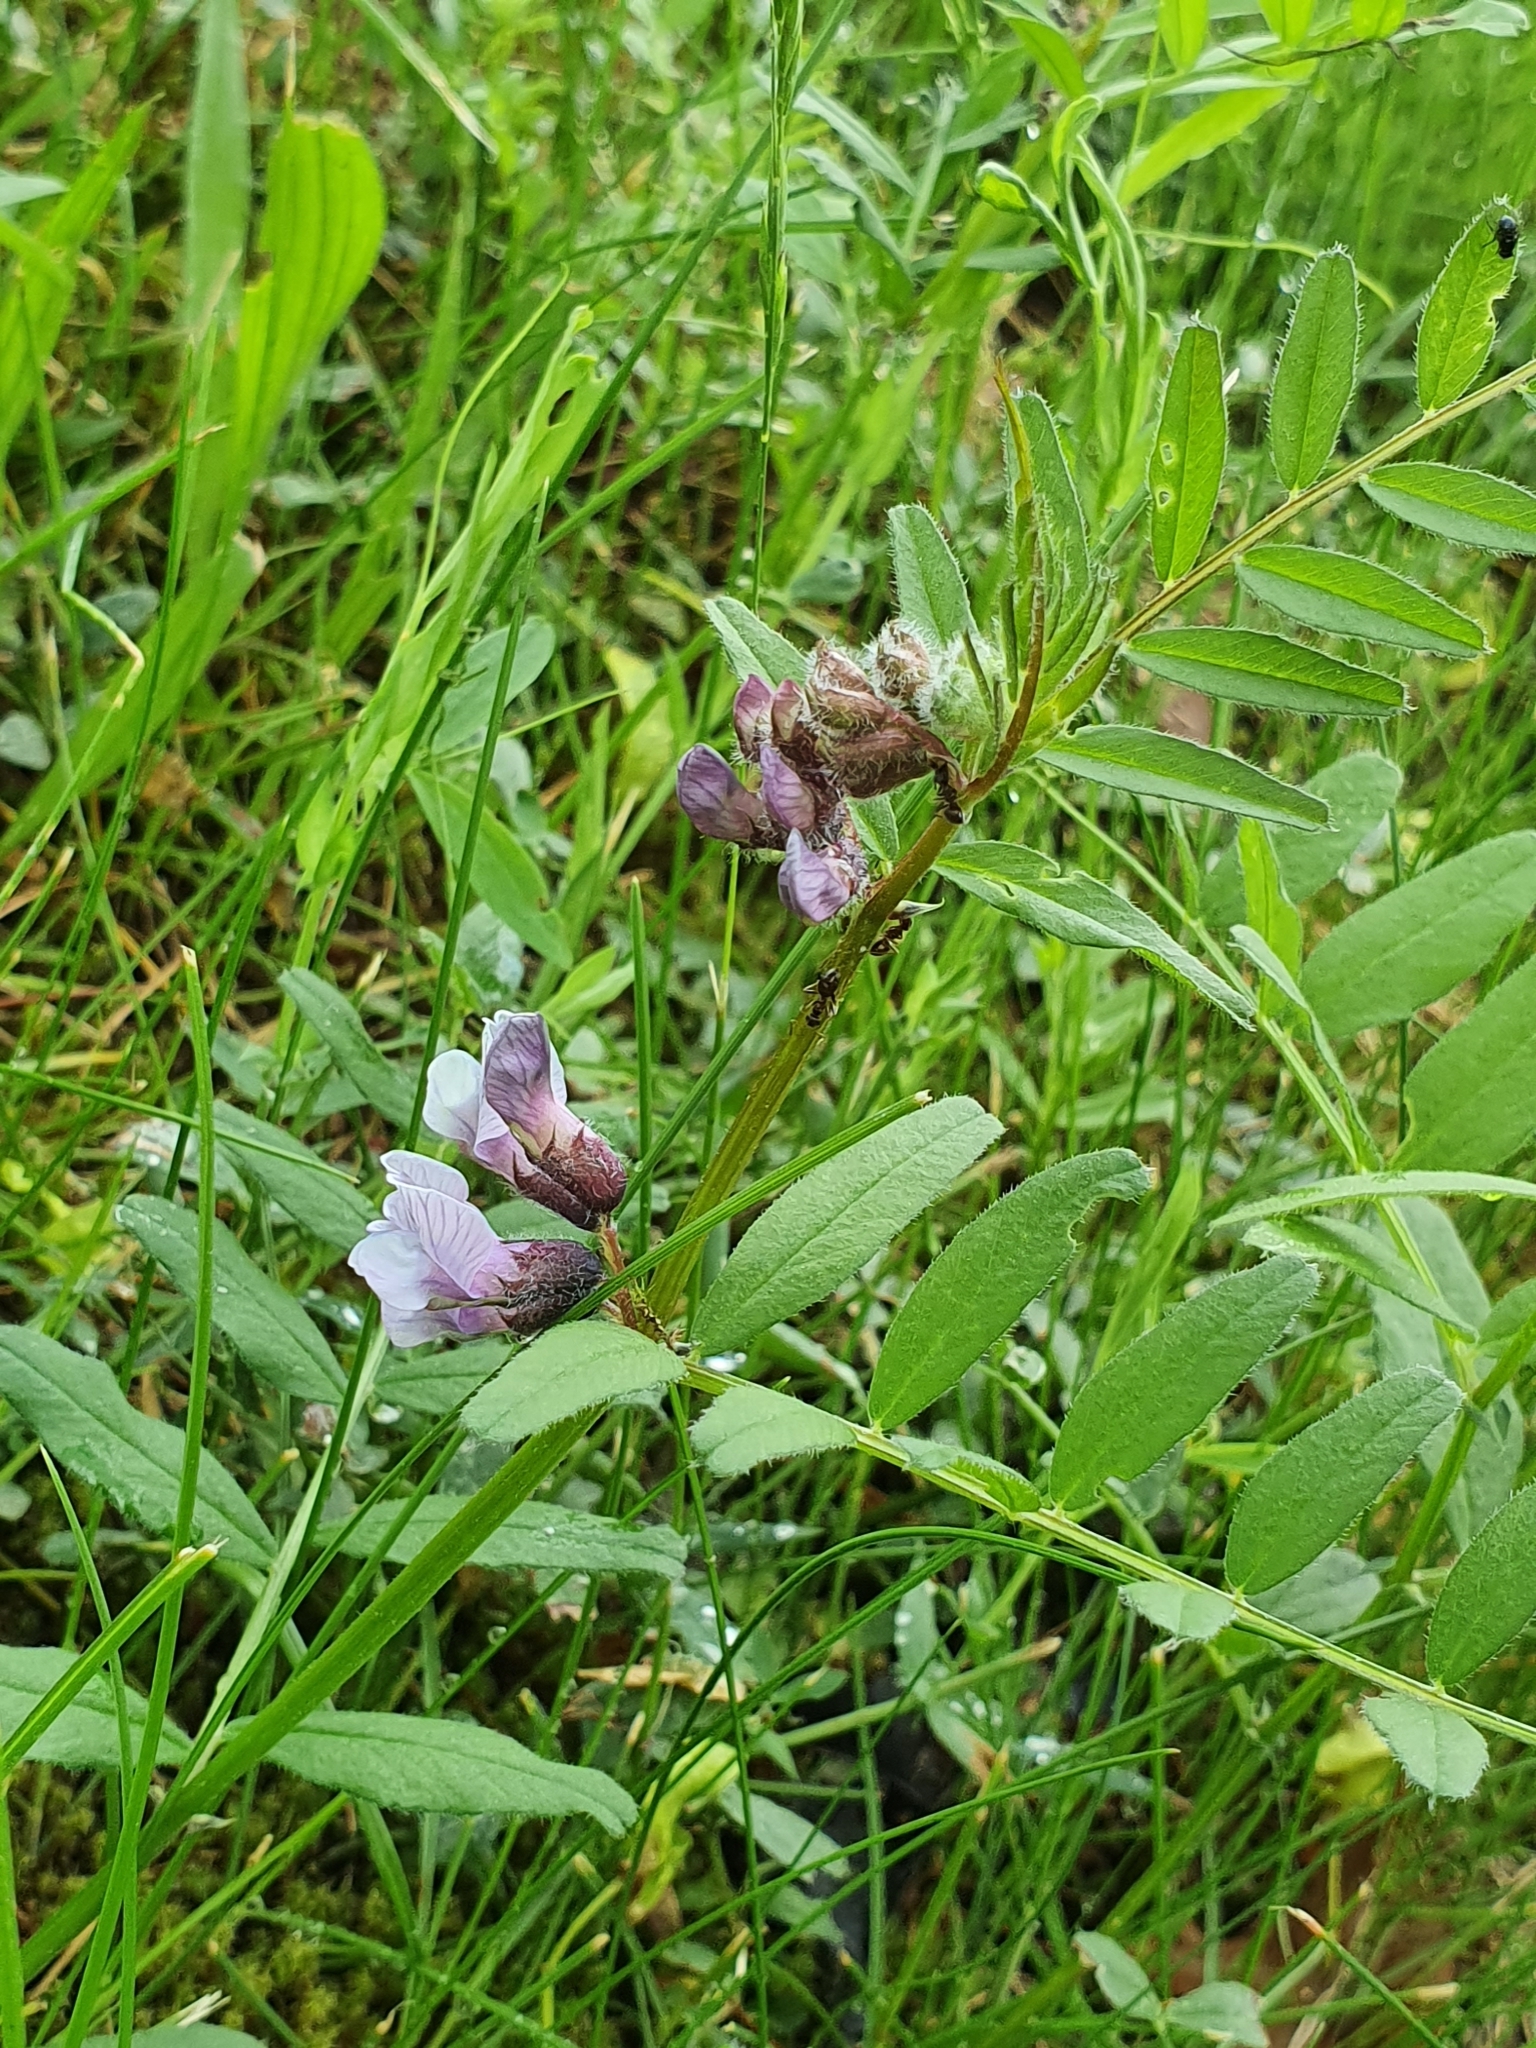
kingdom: Plantae
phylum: Tracheophyta
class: Magnoliopsida
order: Fabales
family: Fabaceae
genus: Vicia
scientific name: Vicia sepium
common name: Bush vetch
